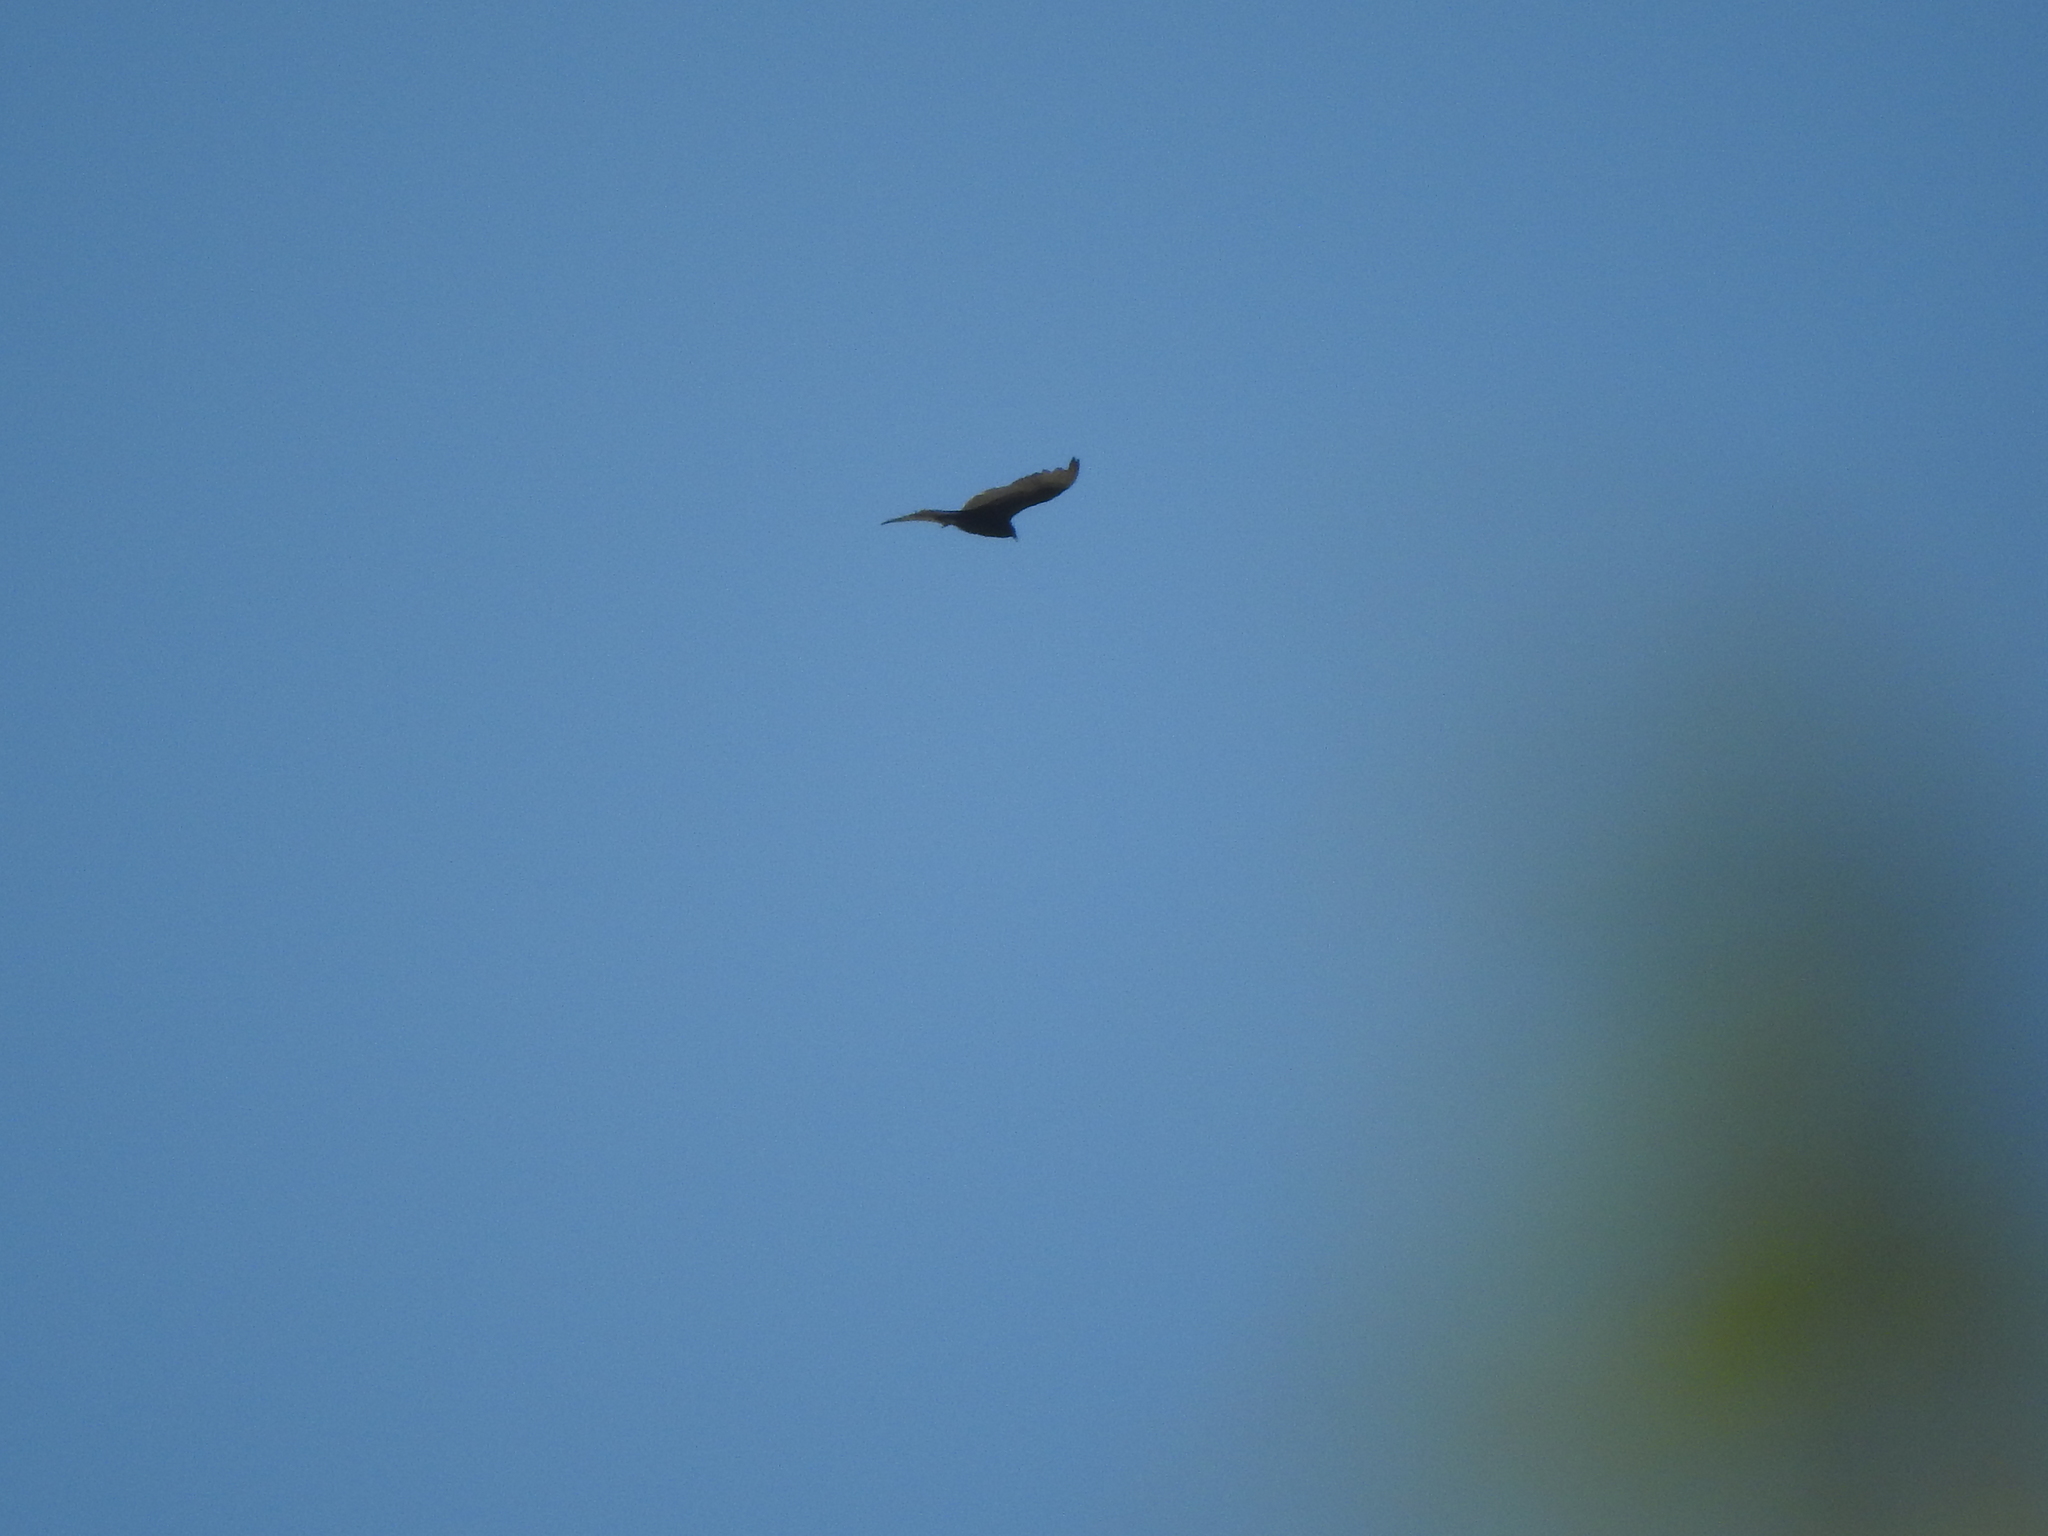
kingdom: Animalia
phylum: Chordata
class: Aves
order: Accipitriformes
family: Cathartidae
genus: Cathartes
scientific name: Cathartes aura
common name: Turkey vulture
